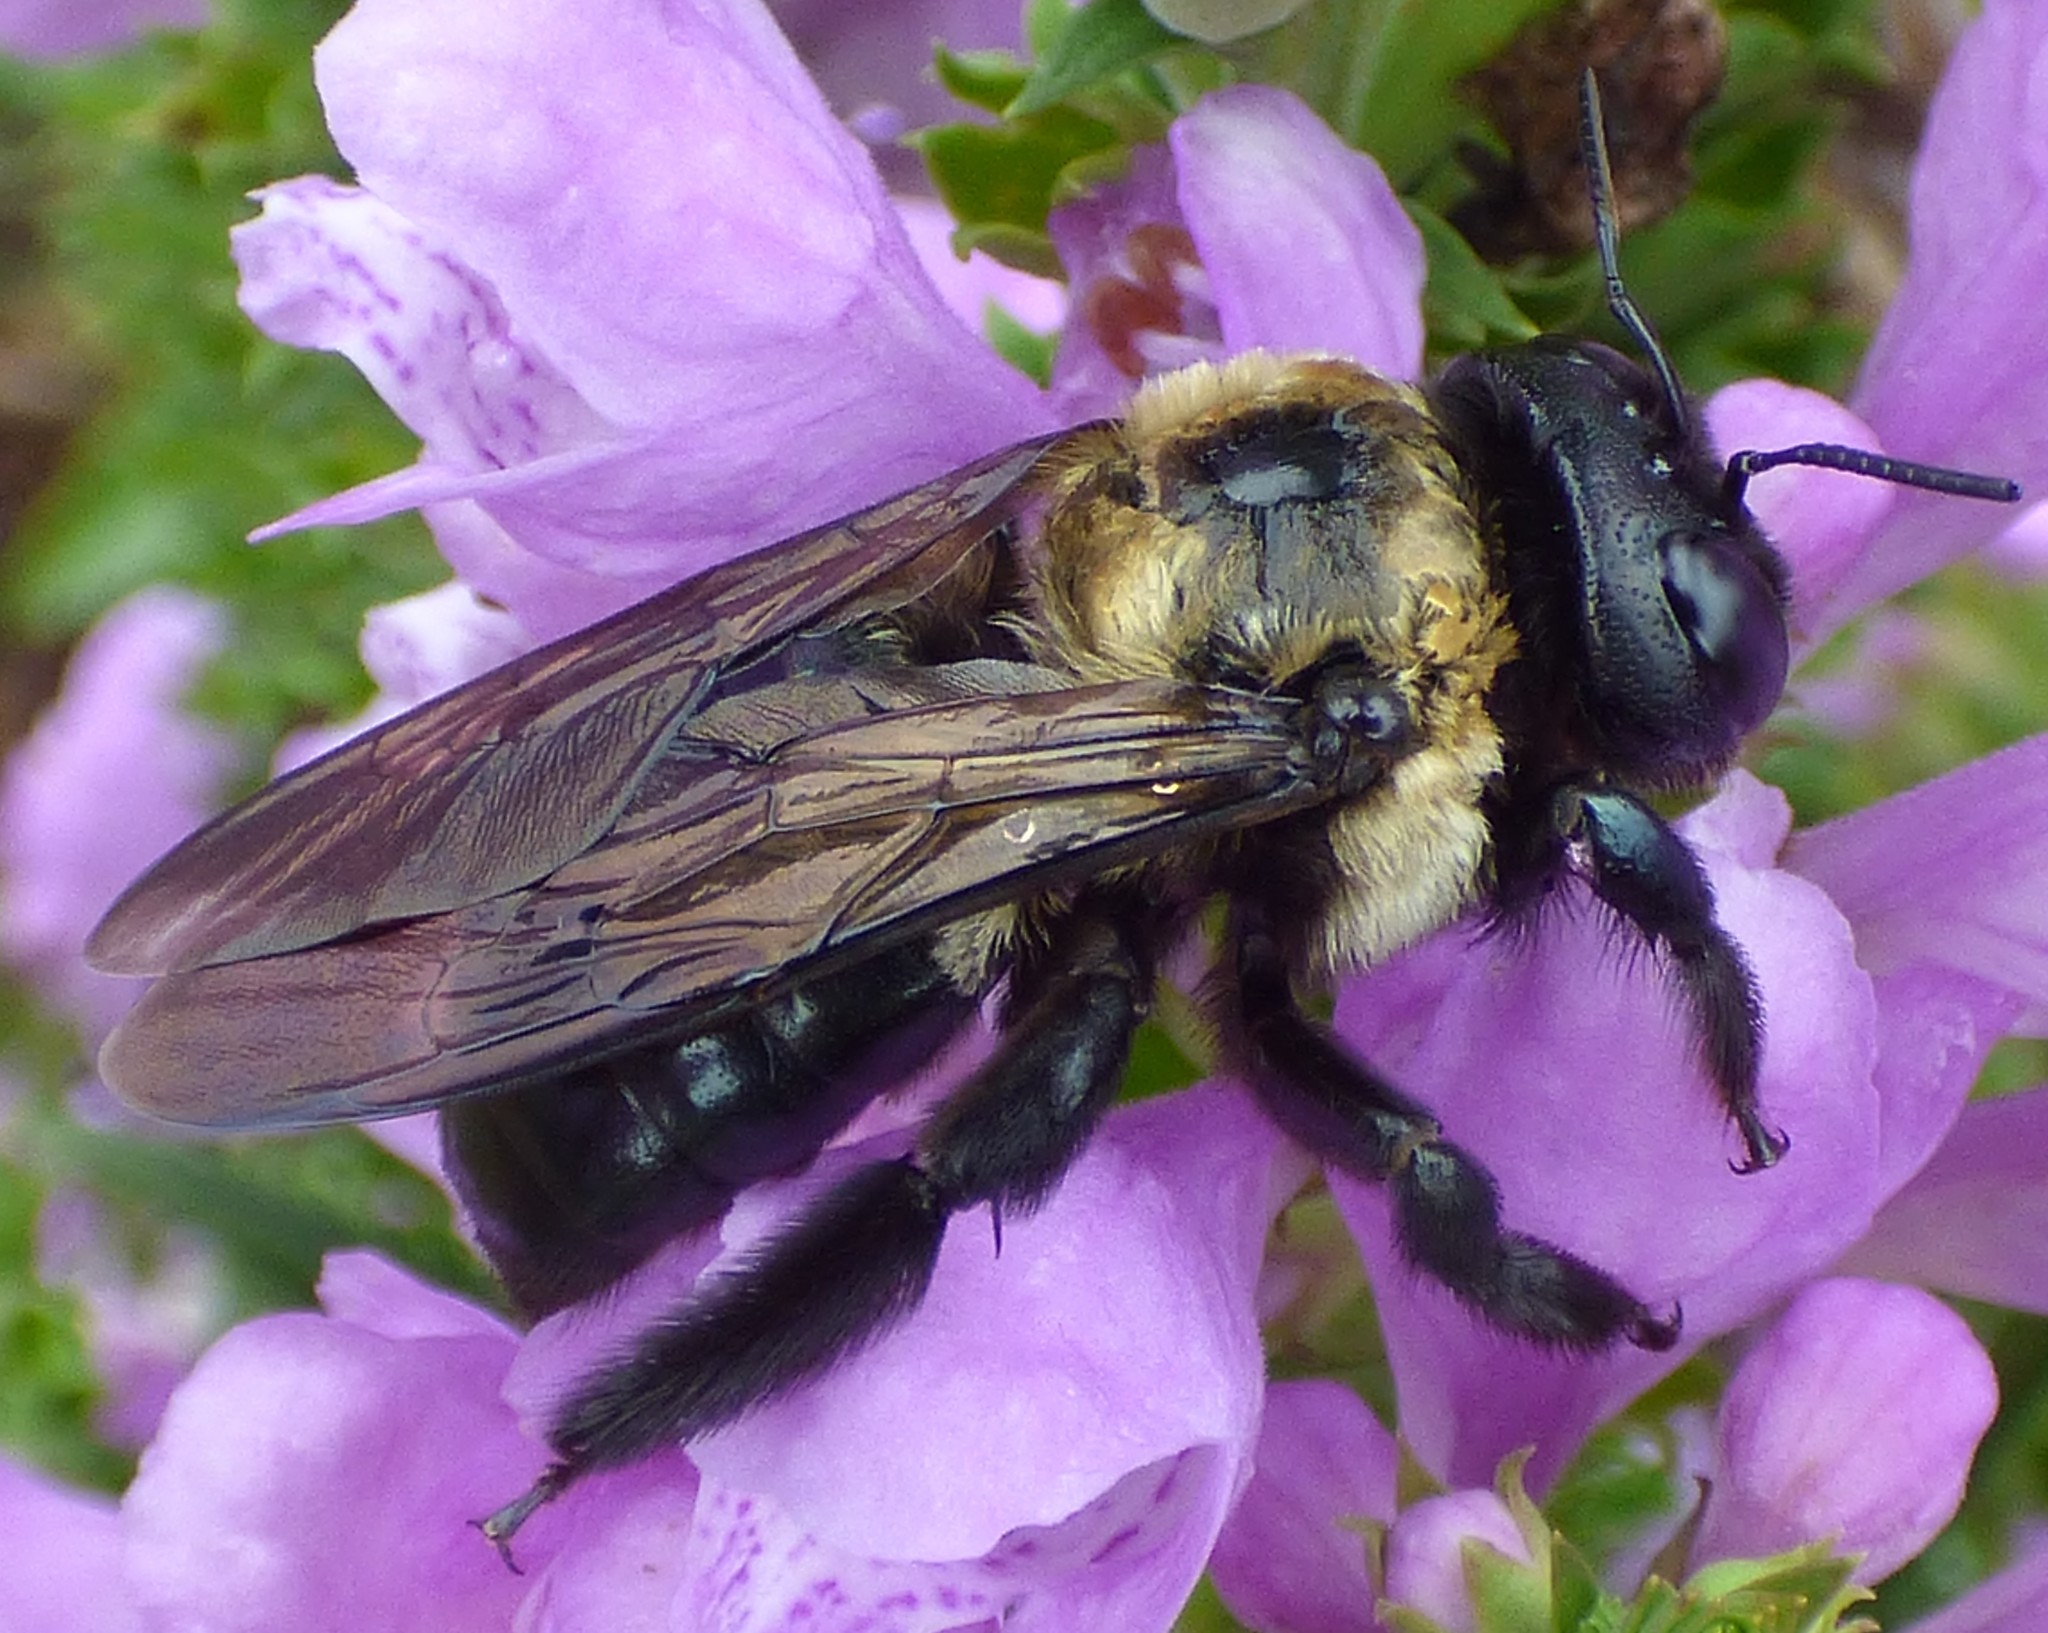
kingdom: Animalia
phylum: Arthropoda
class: Insecta
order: Hymenoptera
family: Apidae
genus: Xylocopa
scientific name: Xylocopa virginica
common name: Carpenter bee
